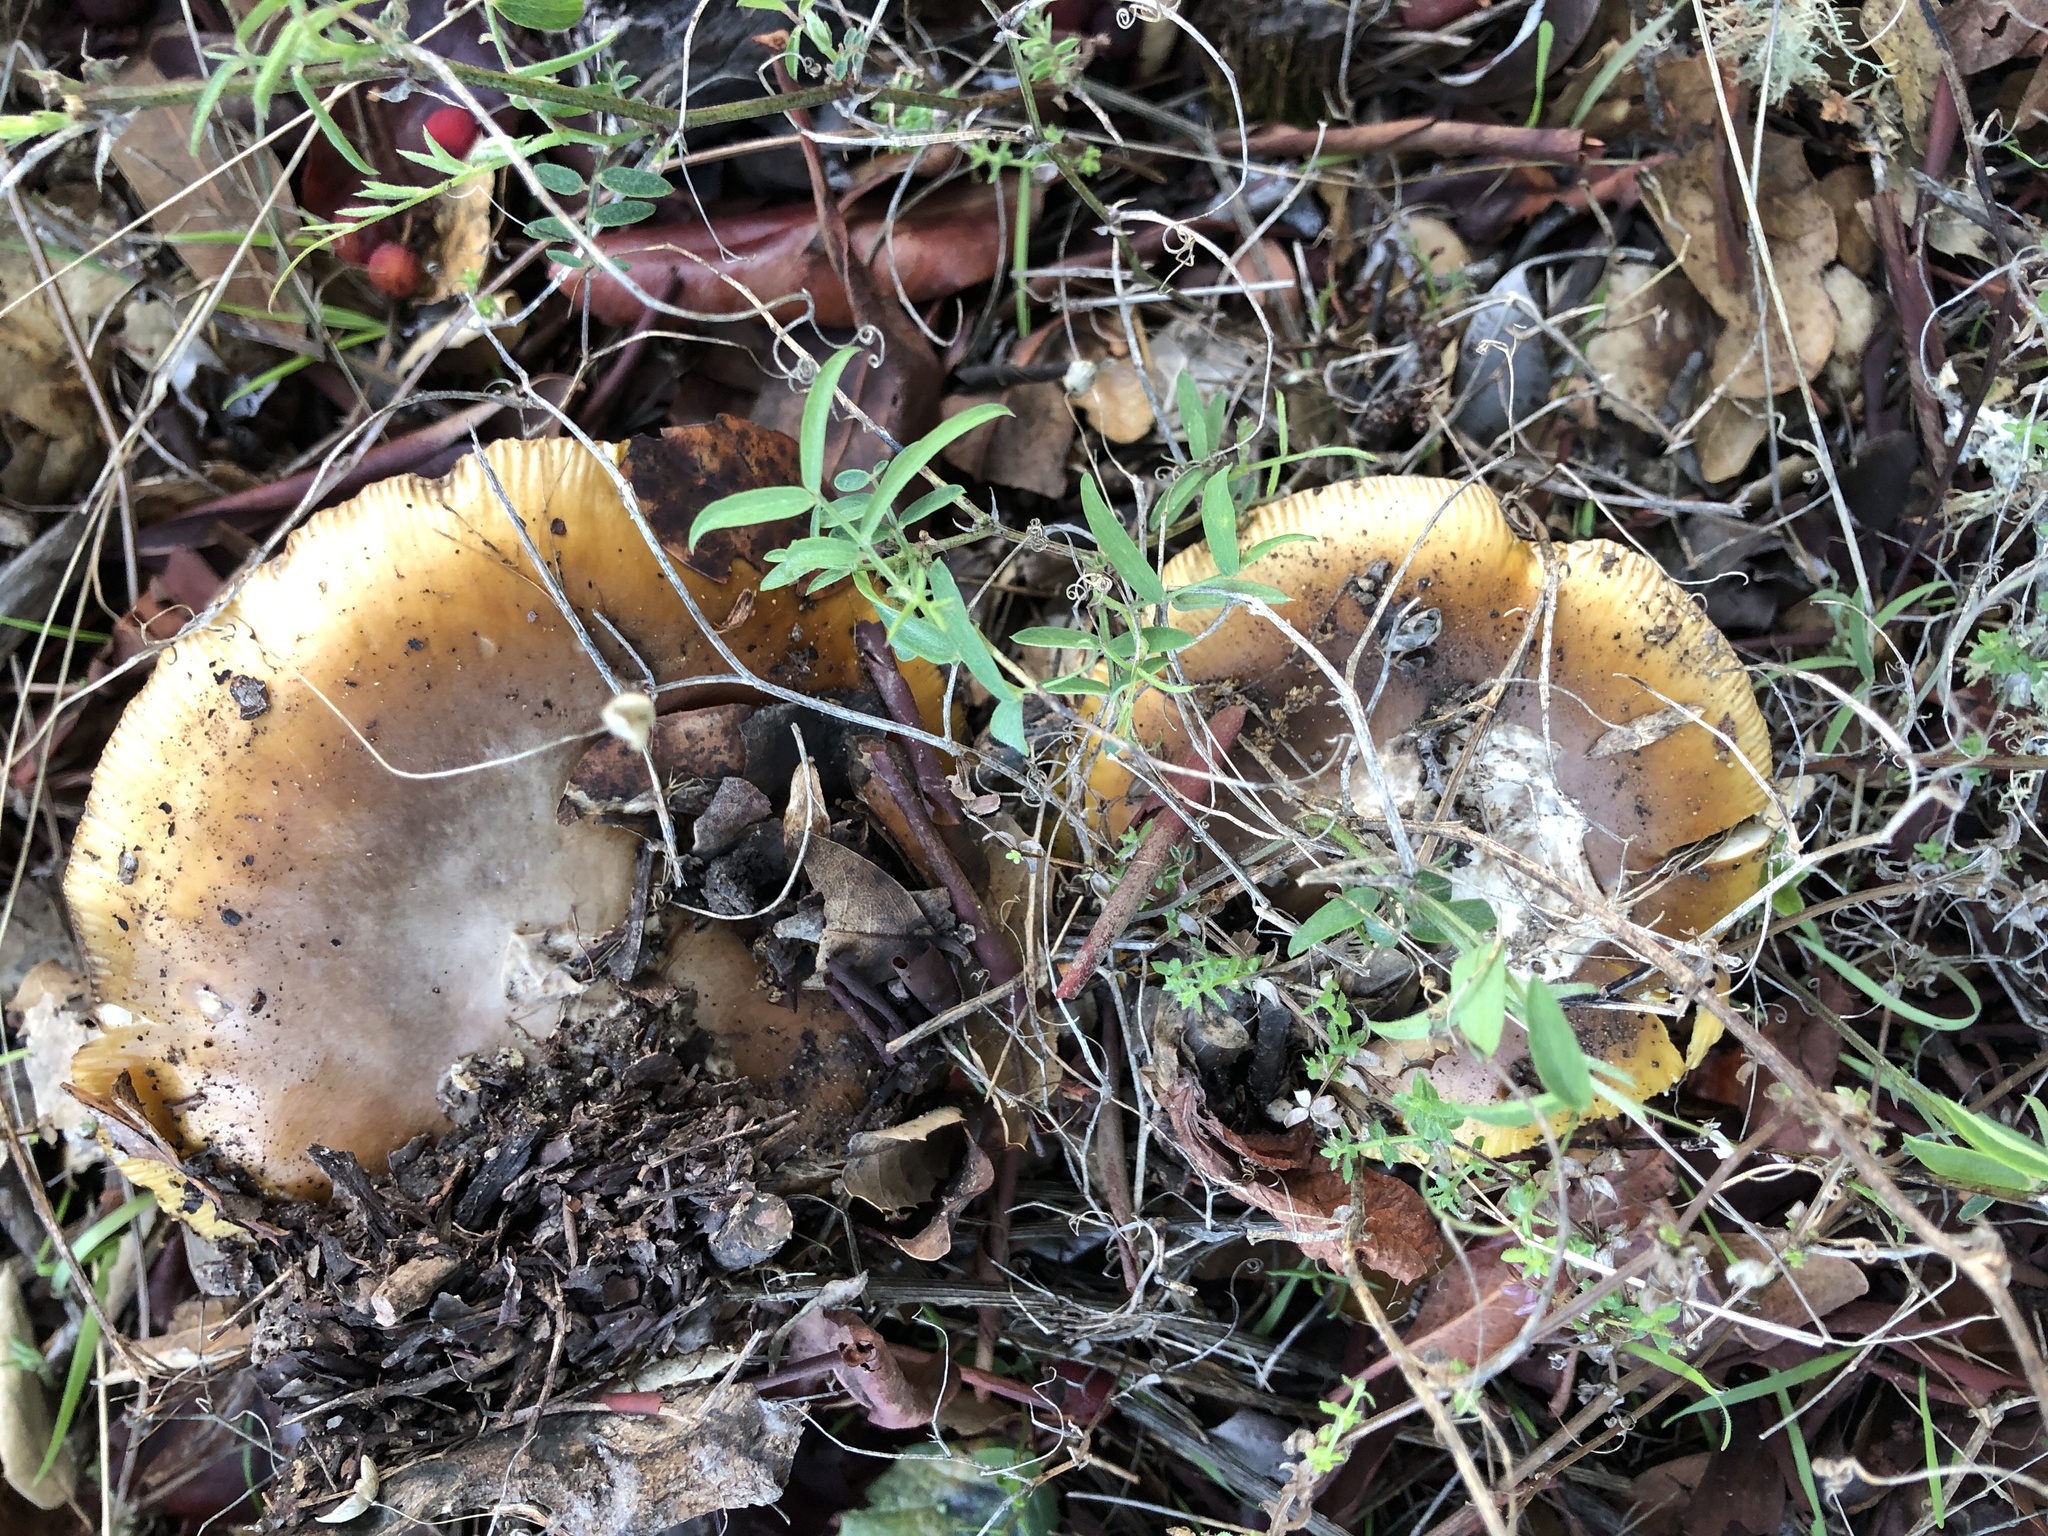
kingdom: Fungi
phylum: Basidiomycota
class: Agaricomycetes
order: Agaricales
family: Amanitaceae
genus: Amanita
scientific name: Amanita calyptroderma
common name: Coccora
